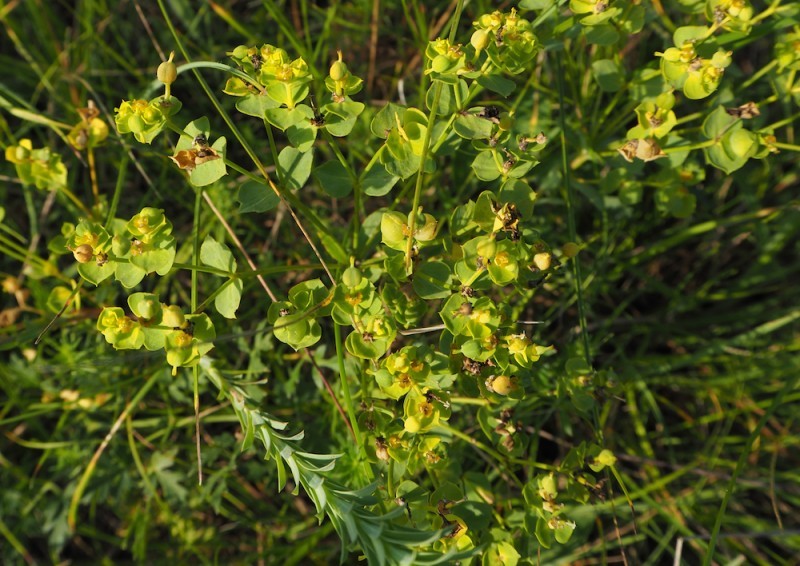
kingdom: Plantae
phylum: Tracheophyta
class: Magnoliopsida
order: Malpighiales
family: Euphorbiaceae
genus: Euphorbia
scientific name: Euphorbia seguieriana
